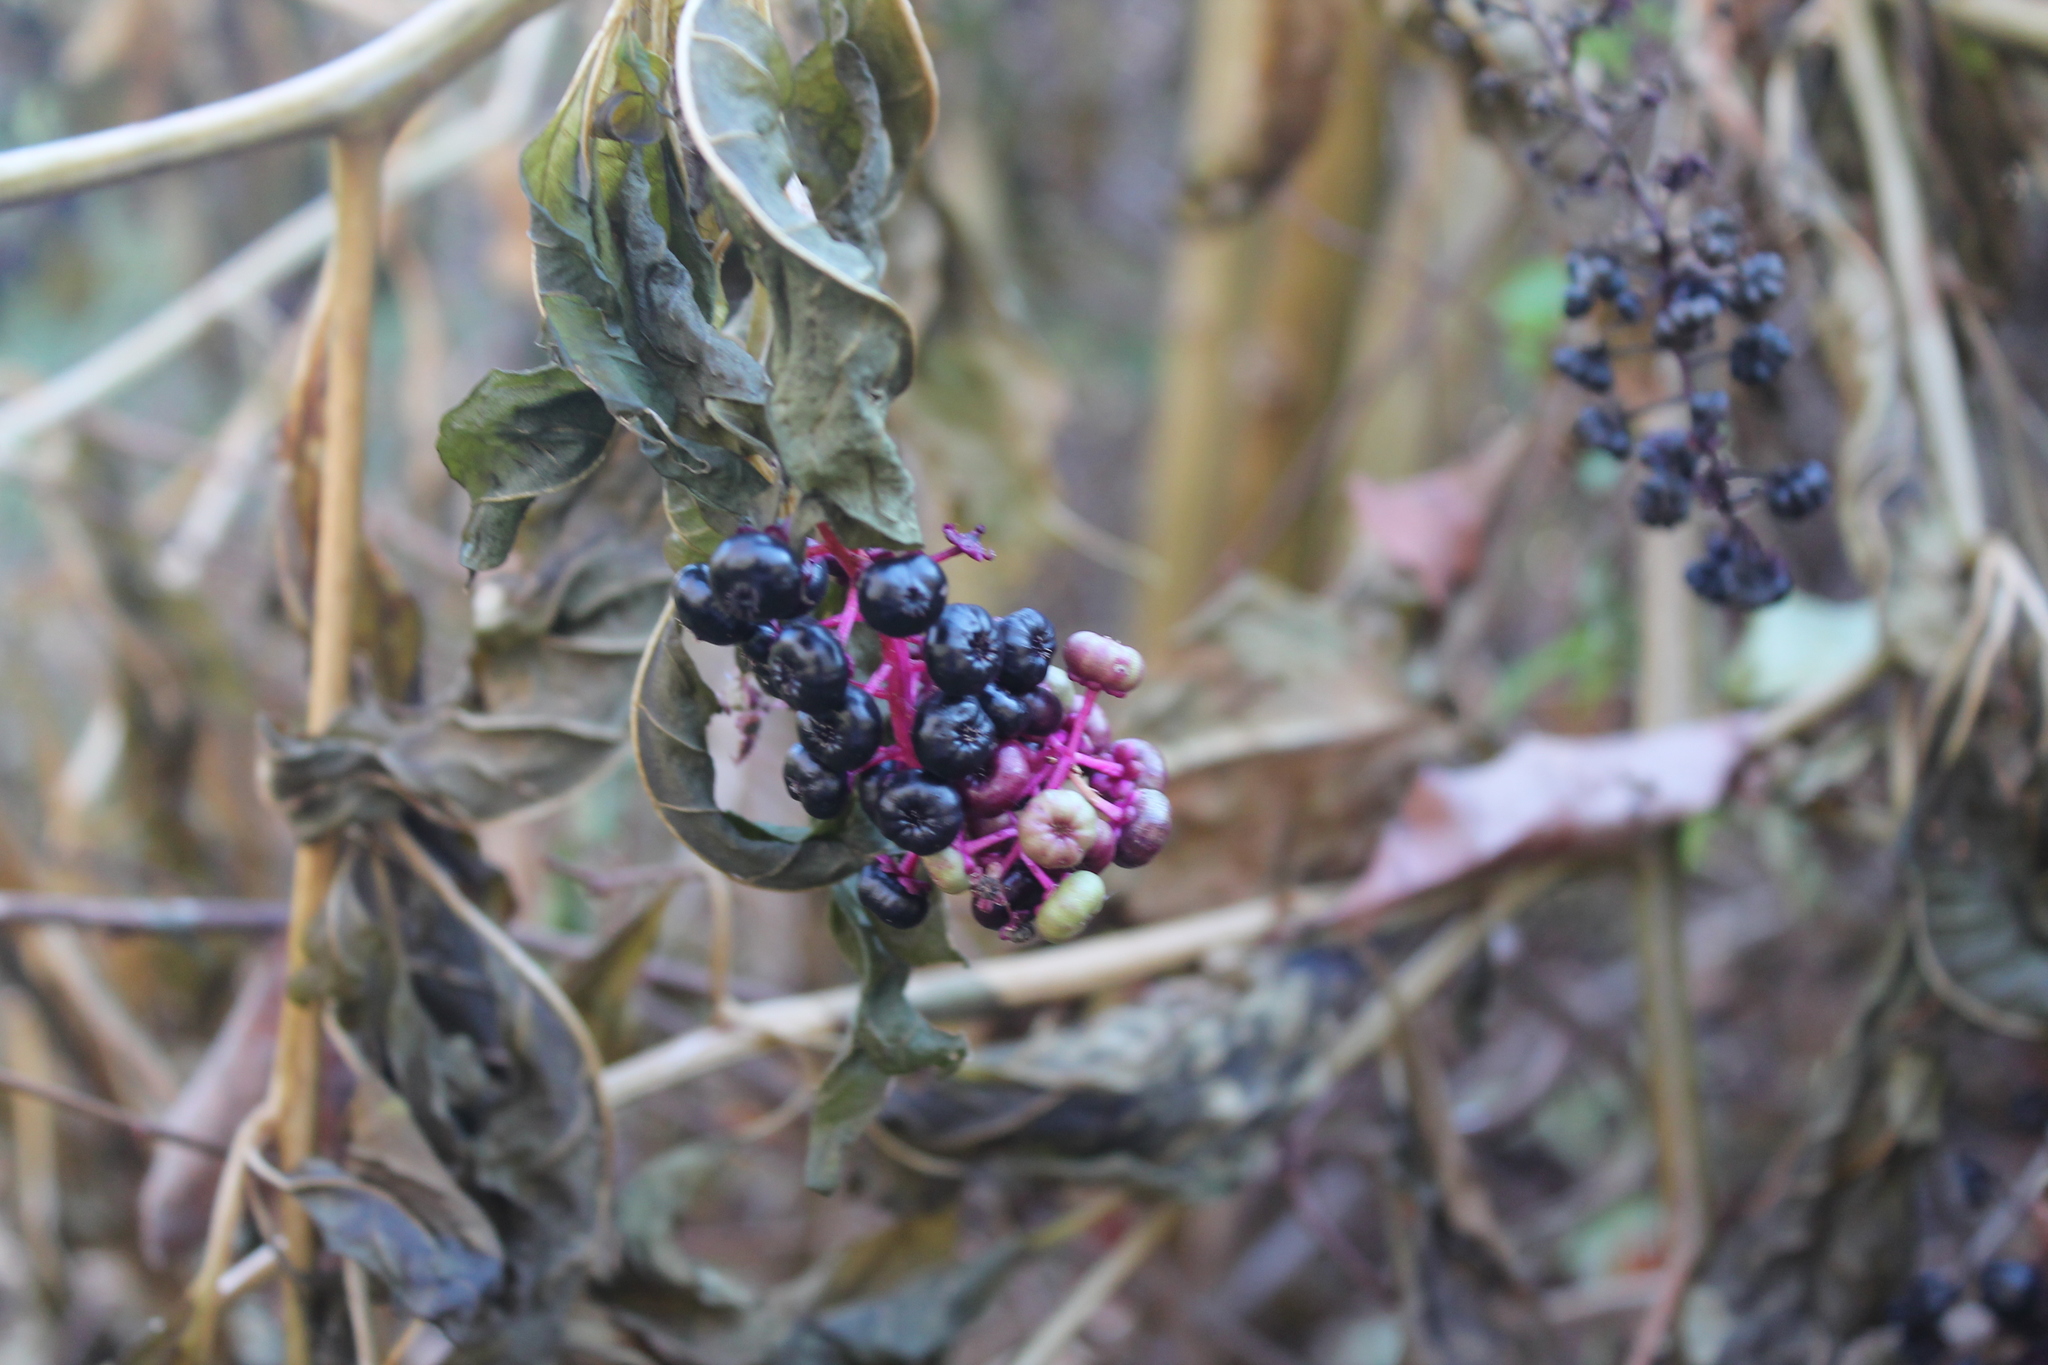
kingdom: Plantae
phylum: Tracheophyta
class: Magnoliopsida
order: Caryophyllales
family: Phytolaccaceae
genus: Phytolacca
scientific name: Phytolacca americana
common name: American pokeweed
